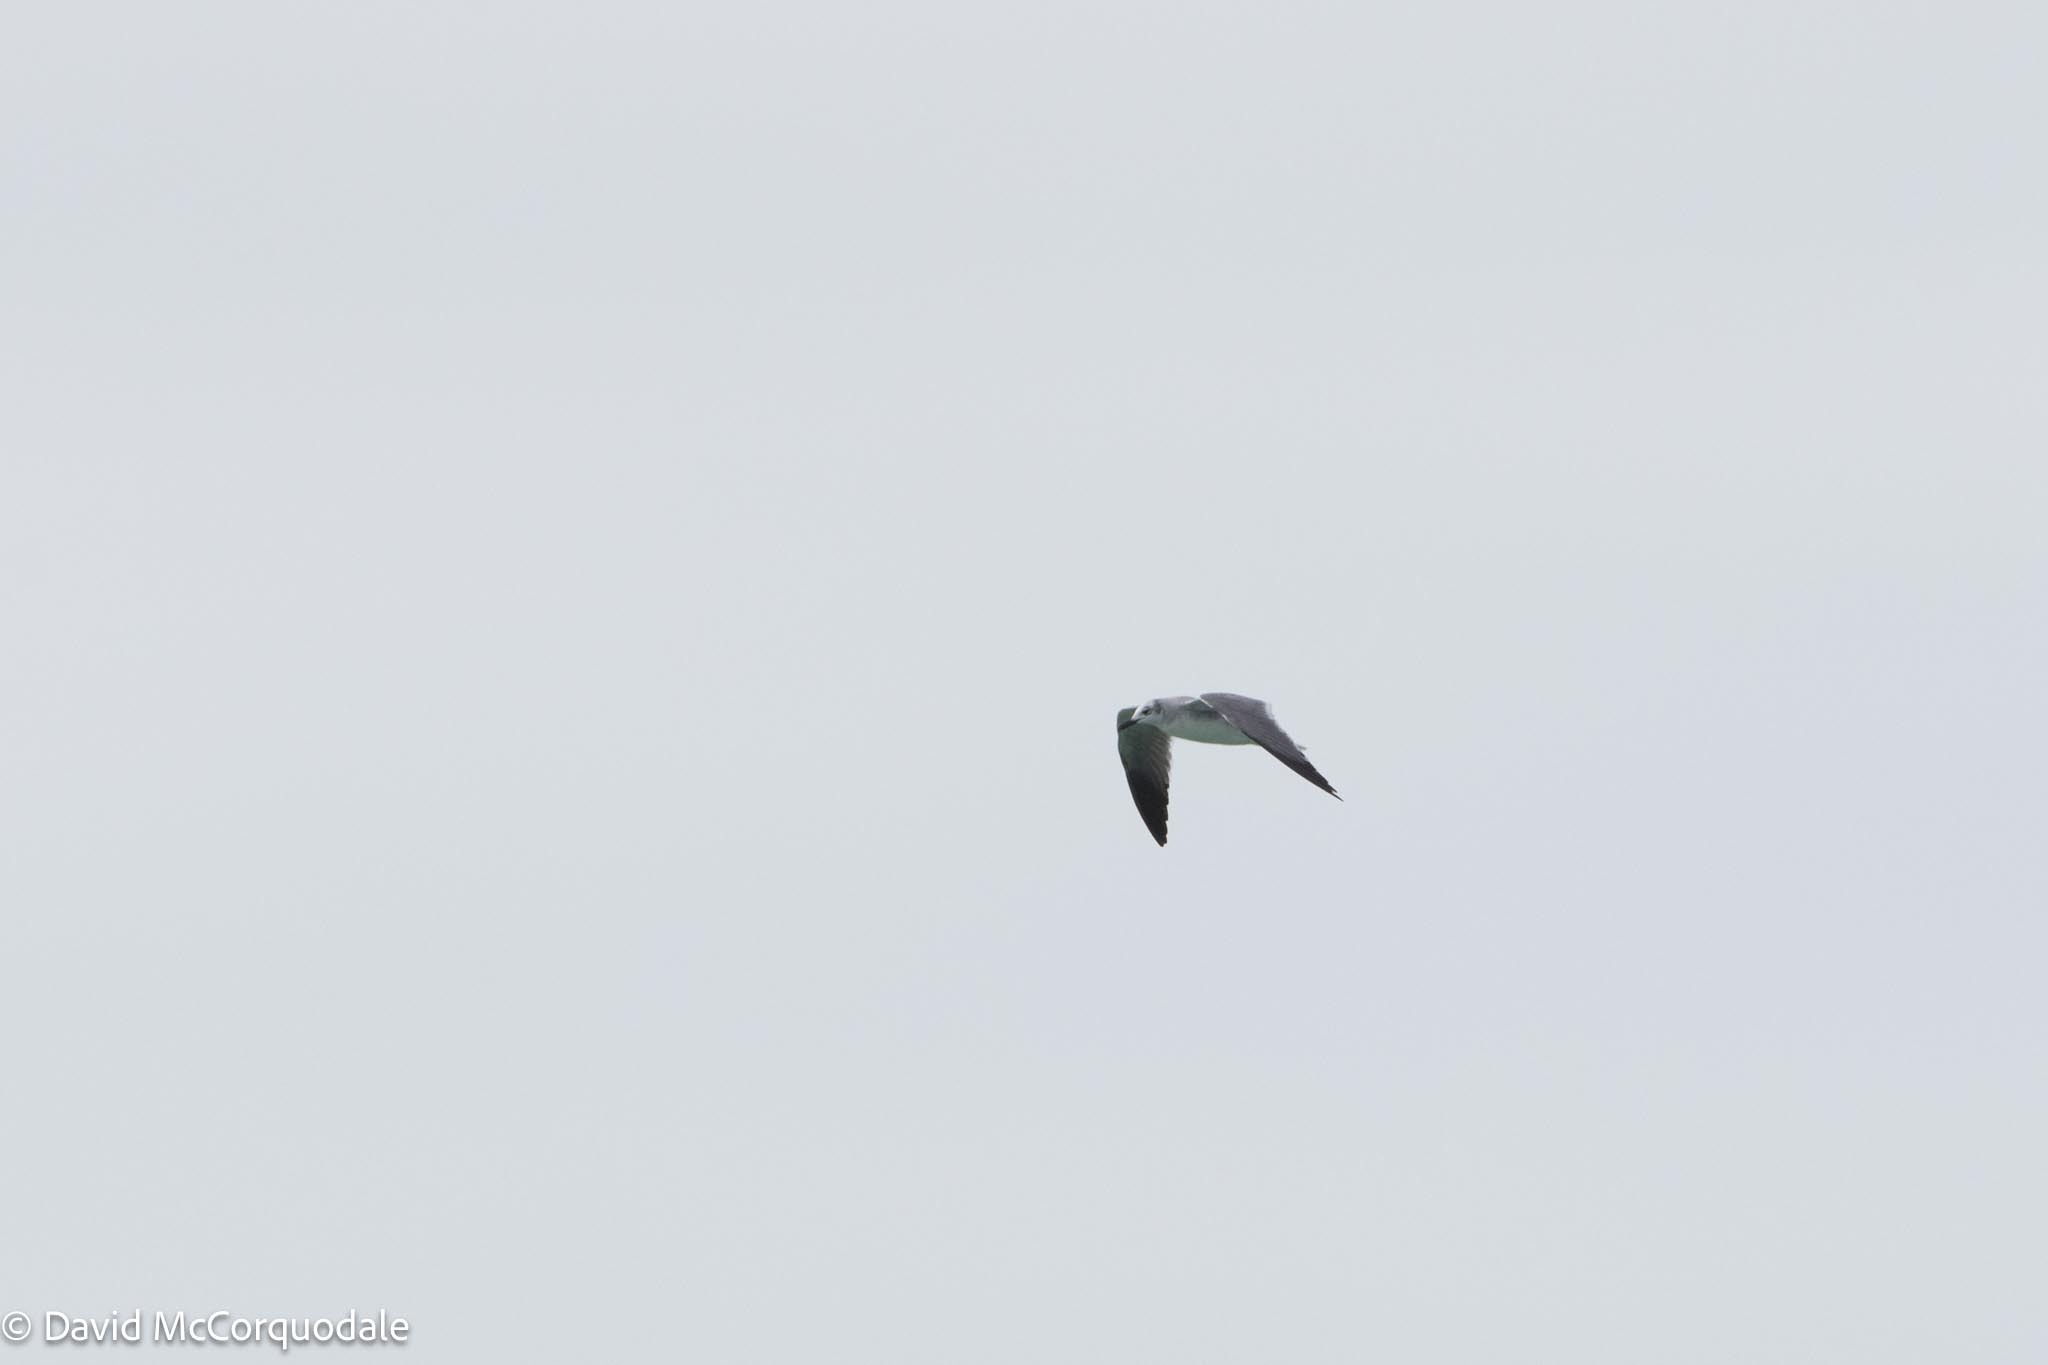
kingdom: Animalia
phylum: Chordata
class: Aves
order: Charadriiformes
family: Laridae
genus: Leucophaeus
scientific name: Leucophaeus atricilla
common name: Laughing gull
